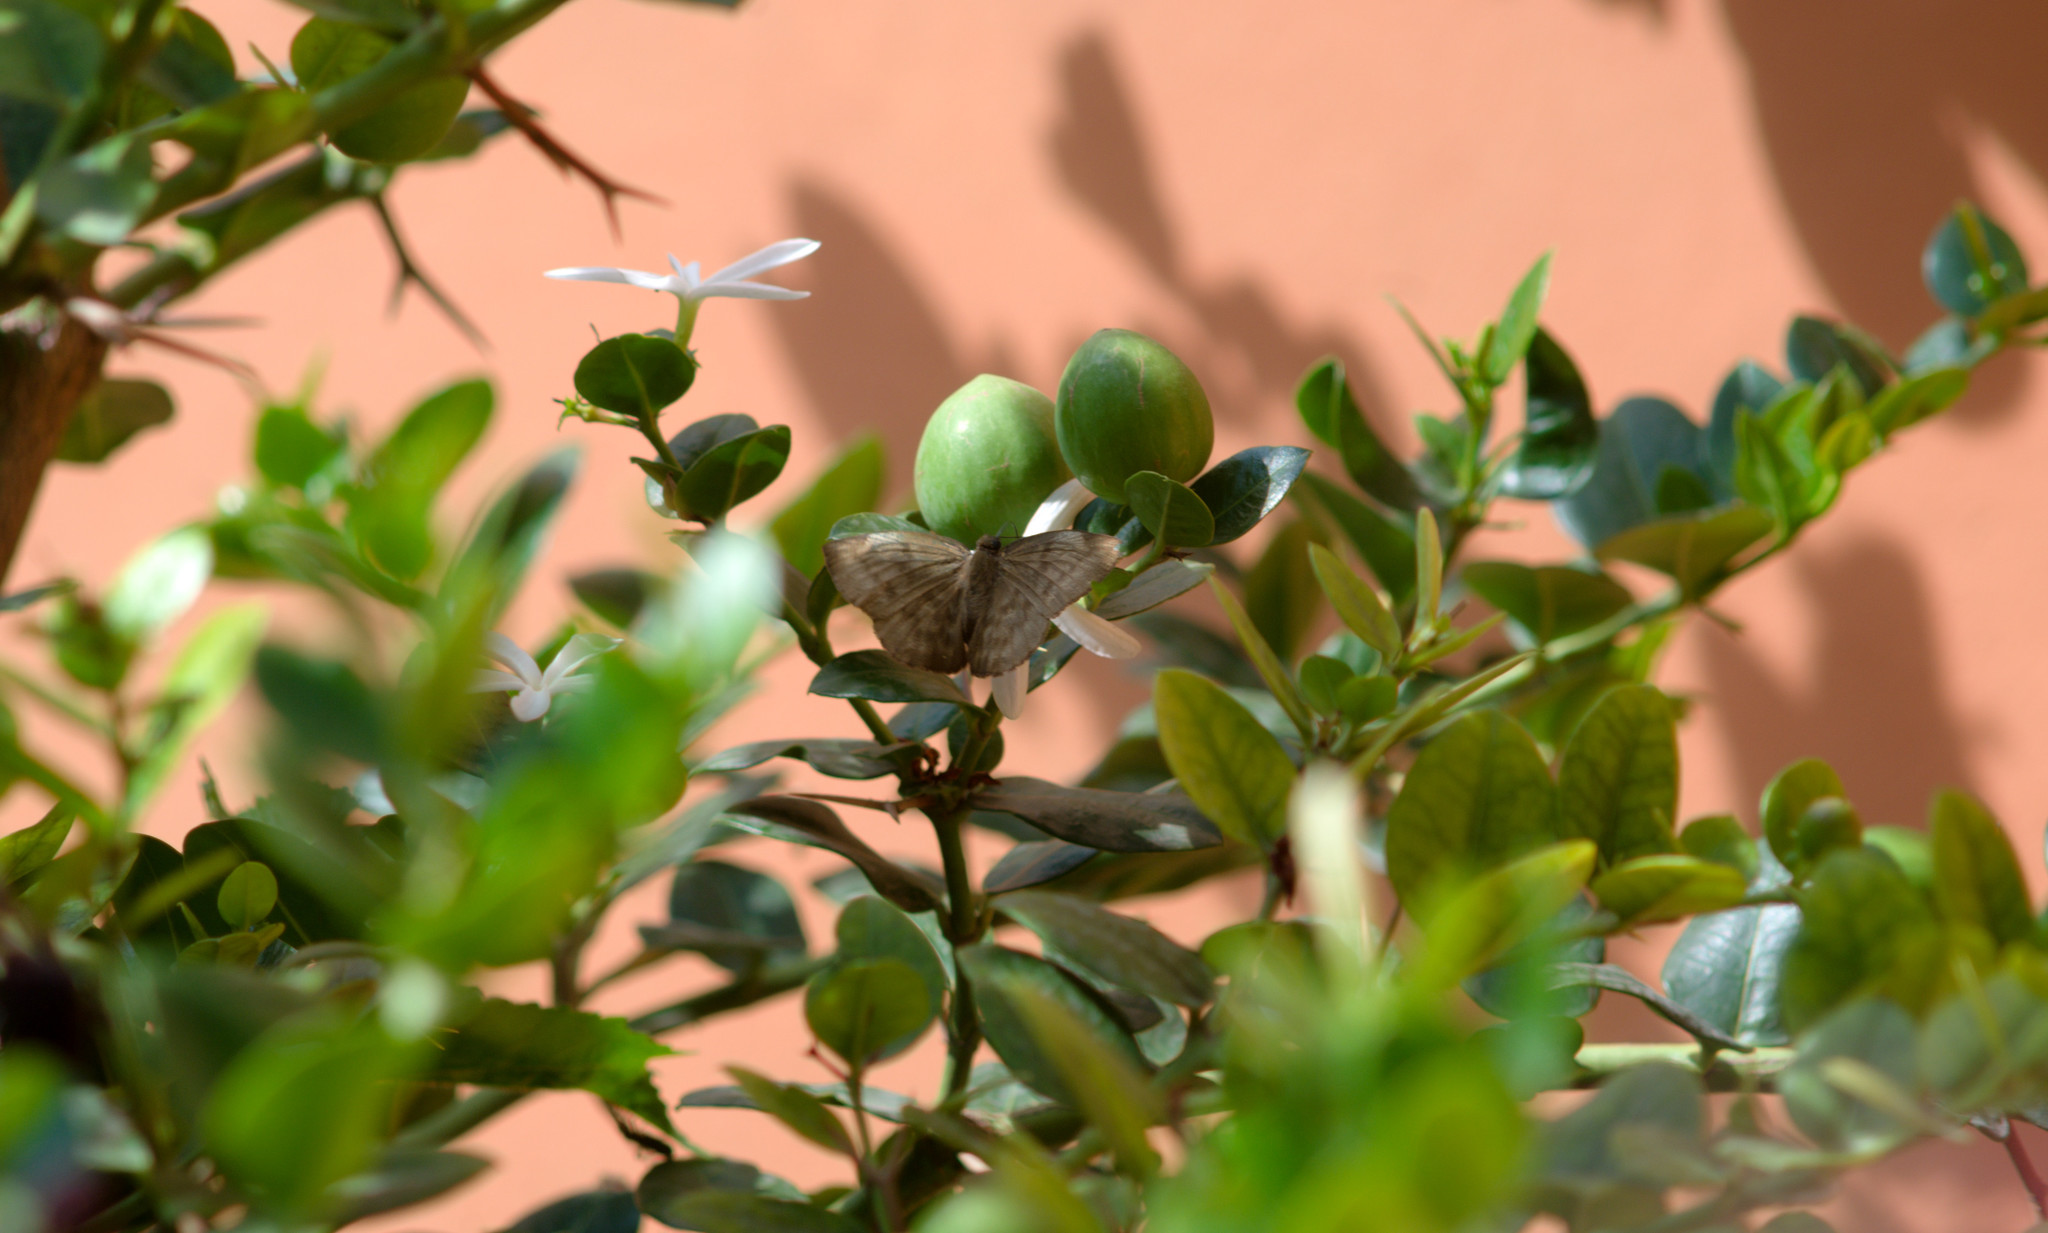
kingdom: Animalia
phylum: Arthropoda
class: Insecta
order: Lepidoptera
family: Hesperiidae
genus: Achlyodes
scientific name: Achlyodes pallida
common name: Pale sicklewing
